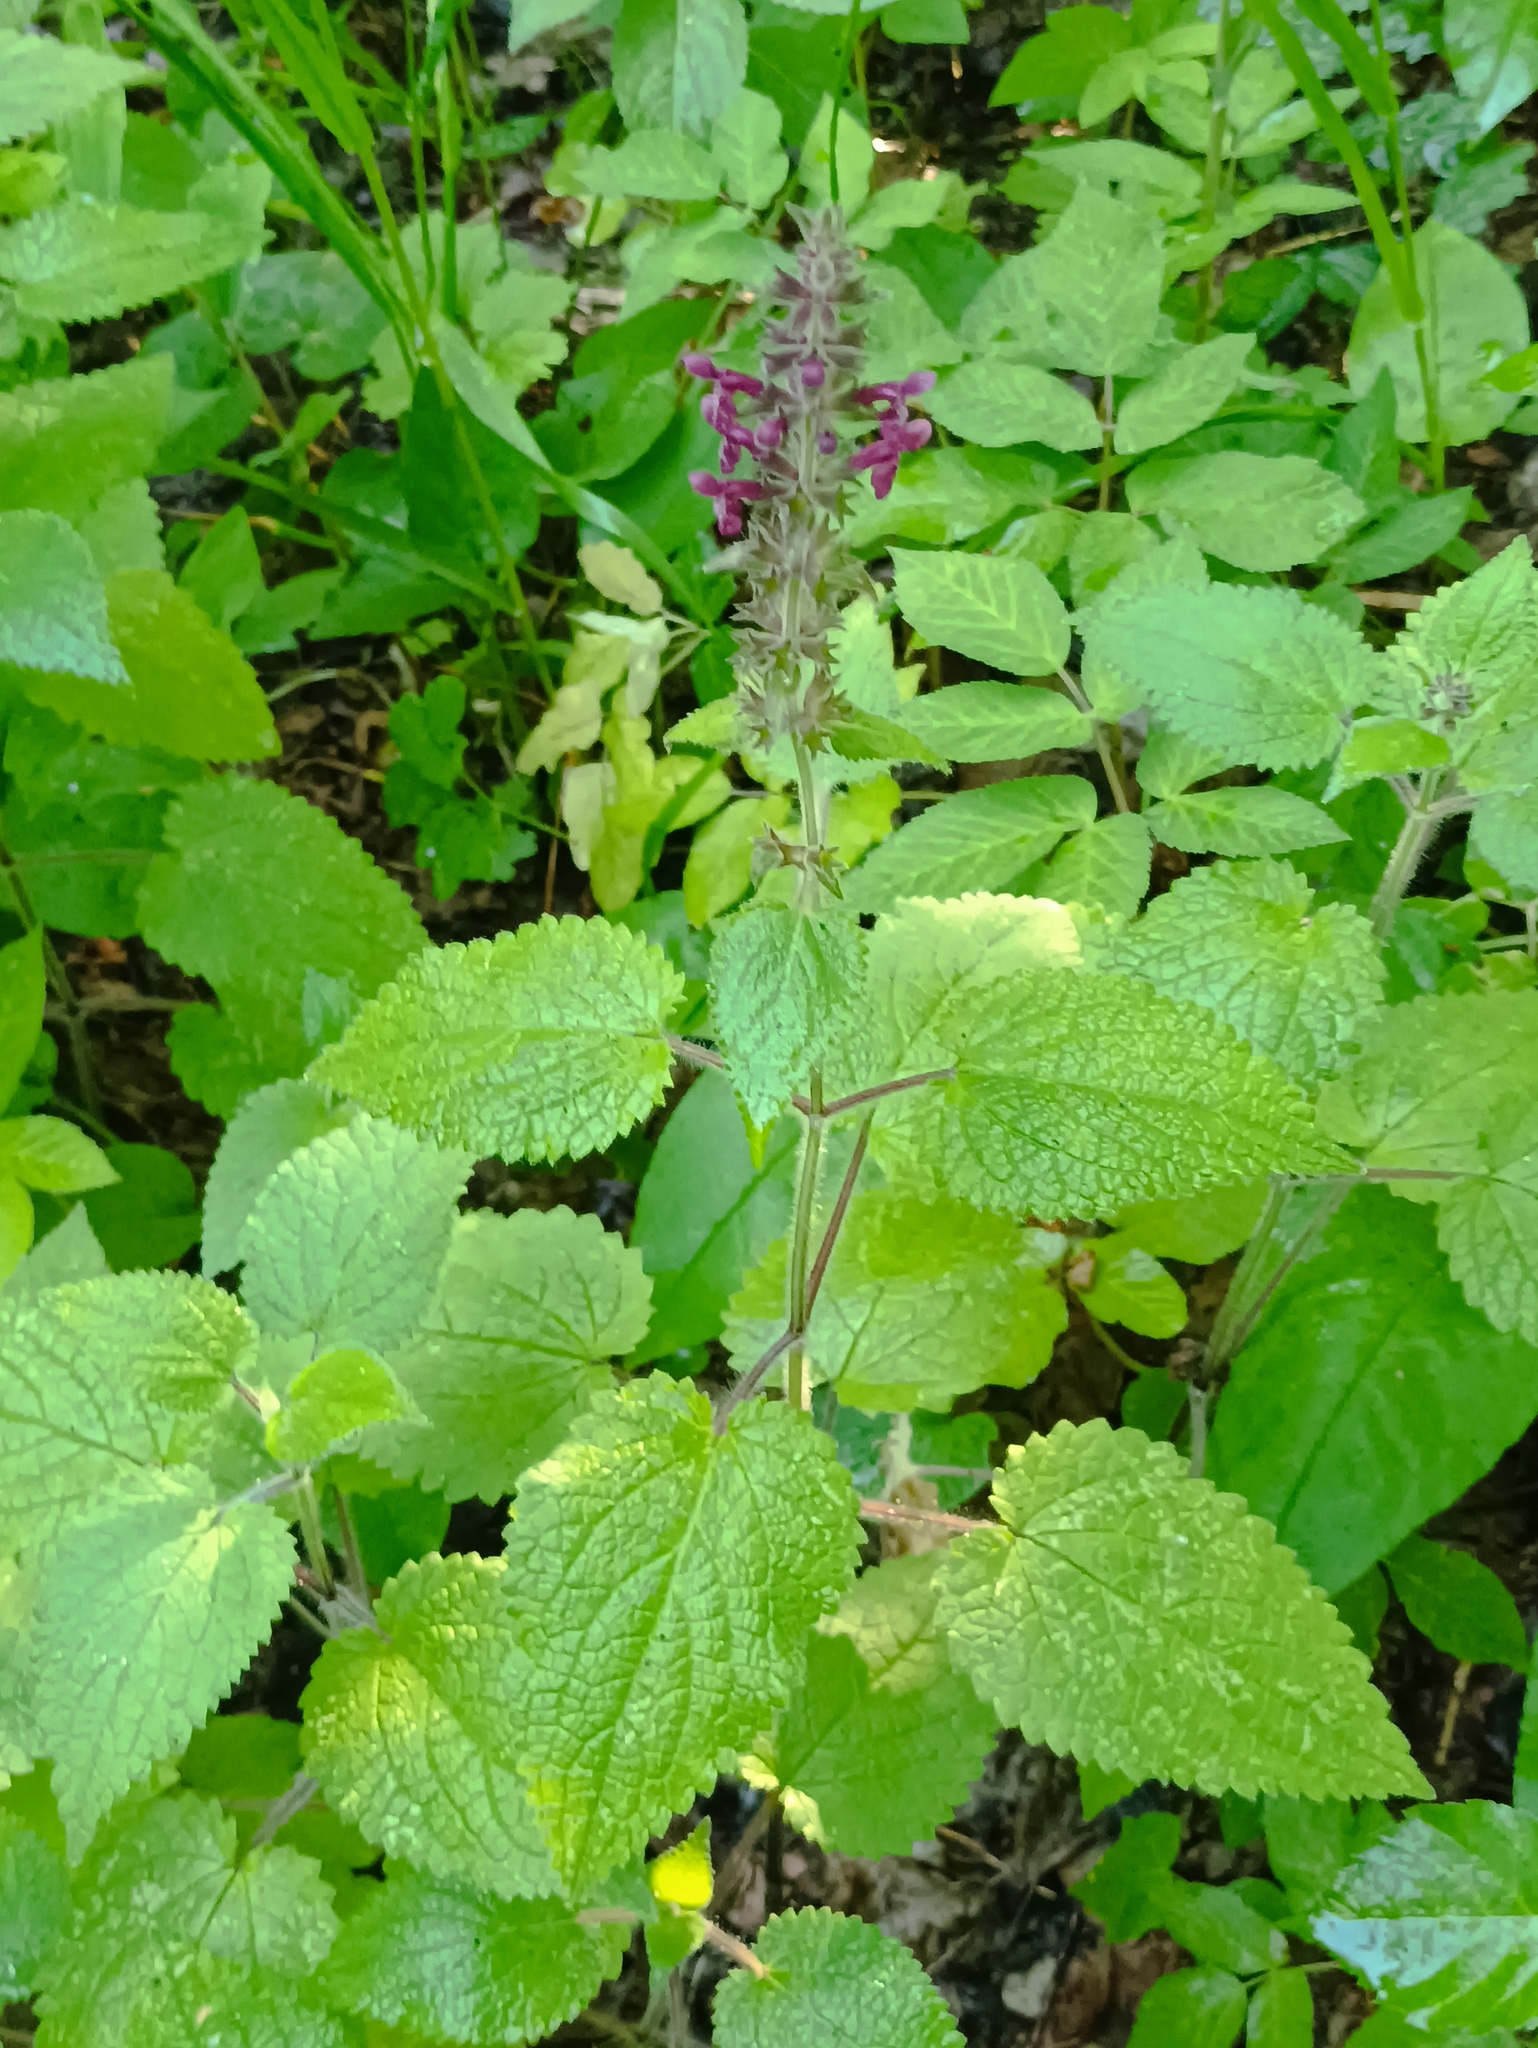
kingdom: Plantae
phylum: Tracheophyta
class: Magnoliopsida
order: Lamiales
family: Lamiaceae
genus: Stachys
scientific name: Stachys sylvatica
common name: Hedge woundwort
